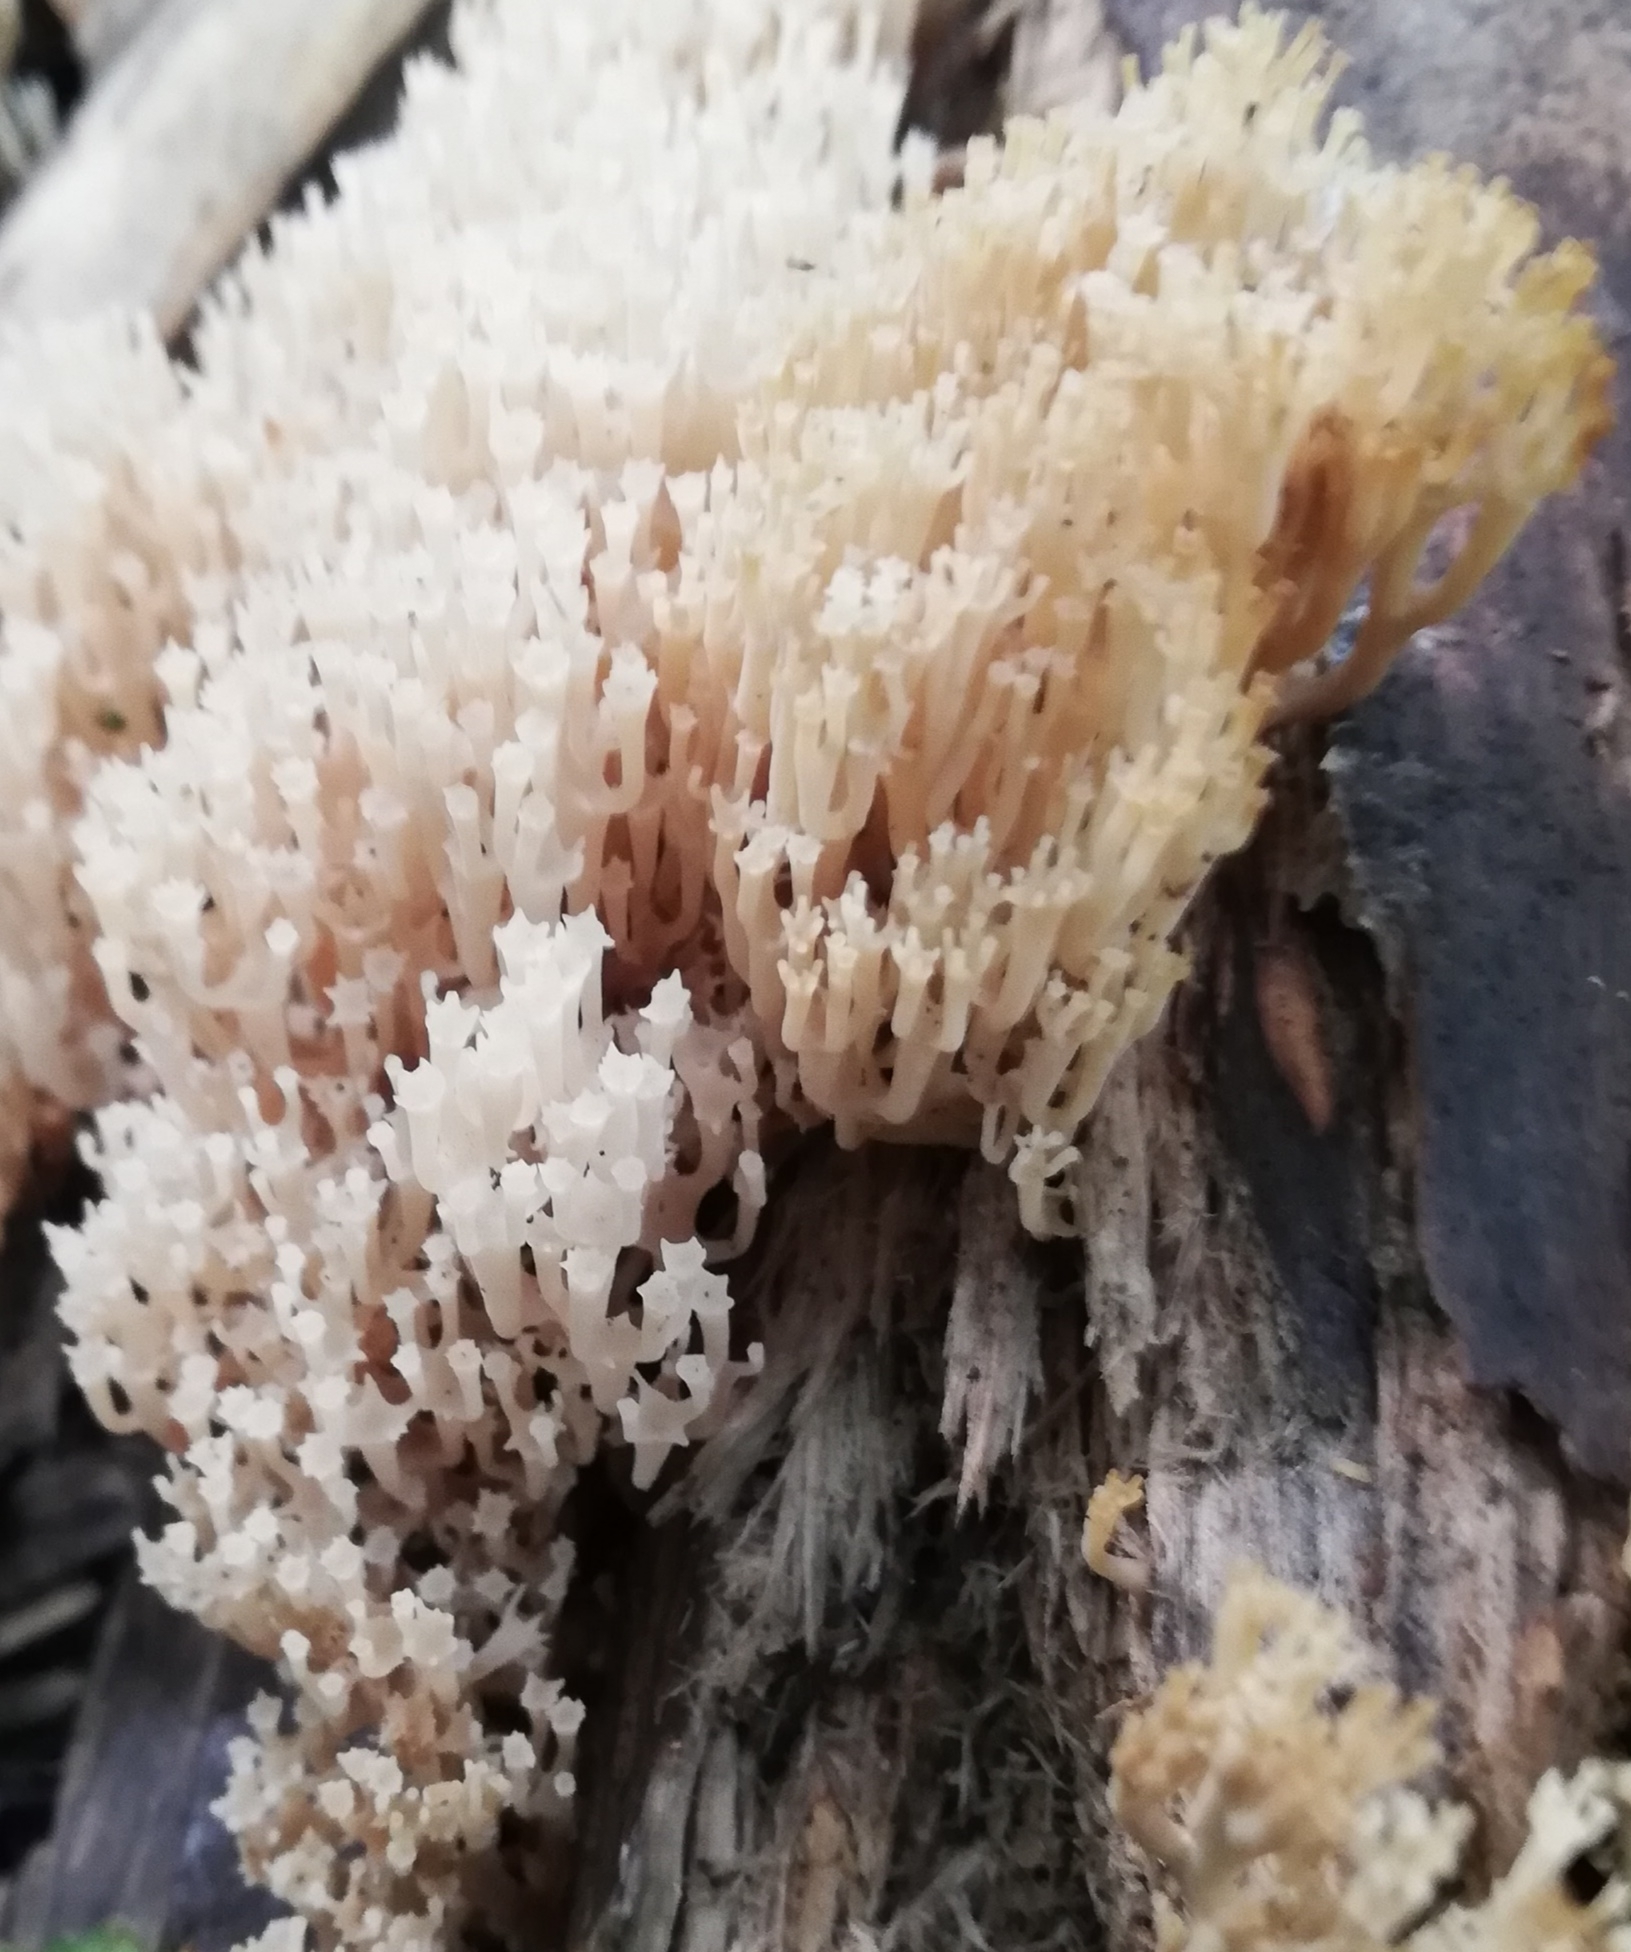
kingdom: Fungi
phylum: Basidiomycota
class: Agaricomycetes
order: Russulales
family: Auriscalpiaceae
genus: Artomyces
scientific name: Artomyces pyxidatus
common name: Crown-tipped coral fungus
